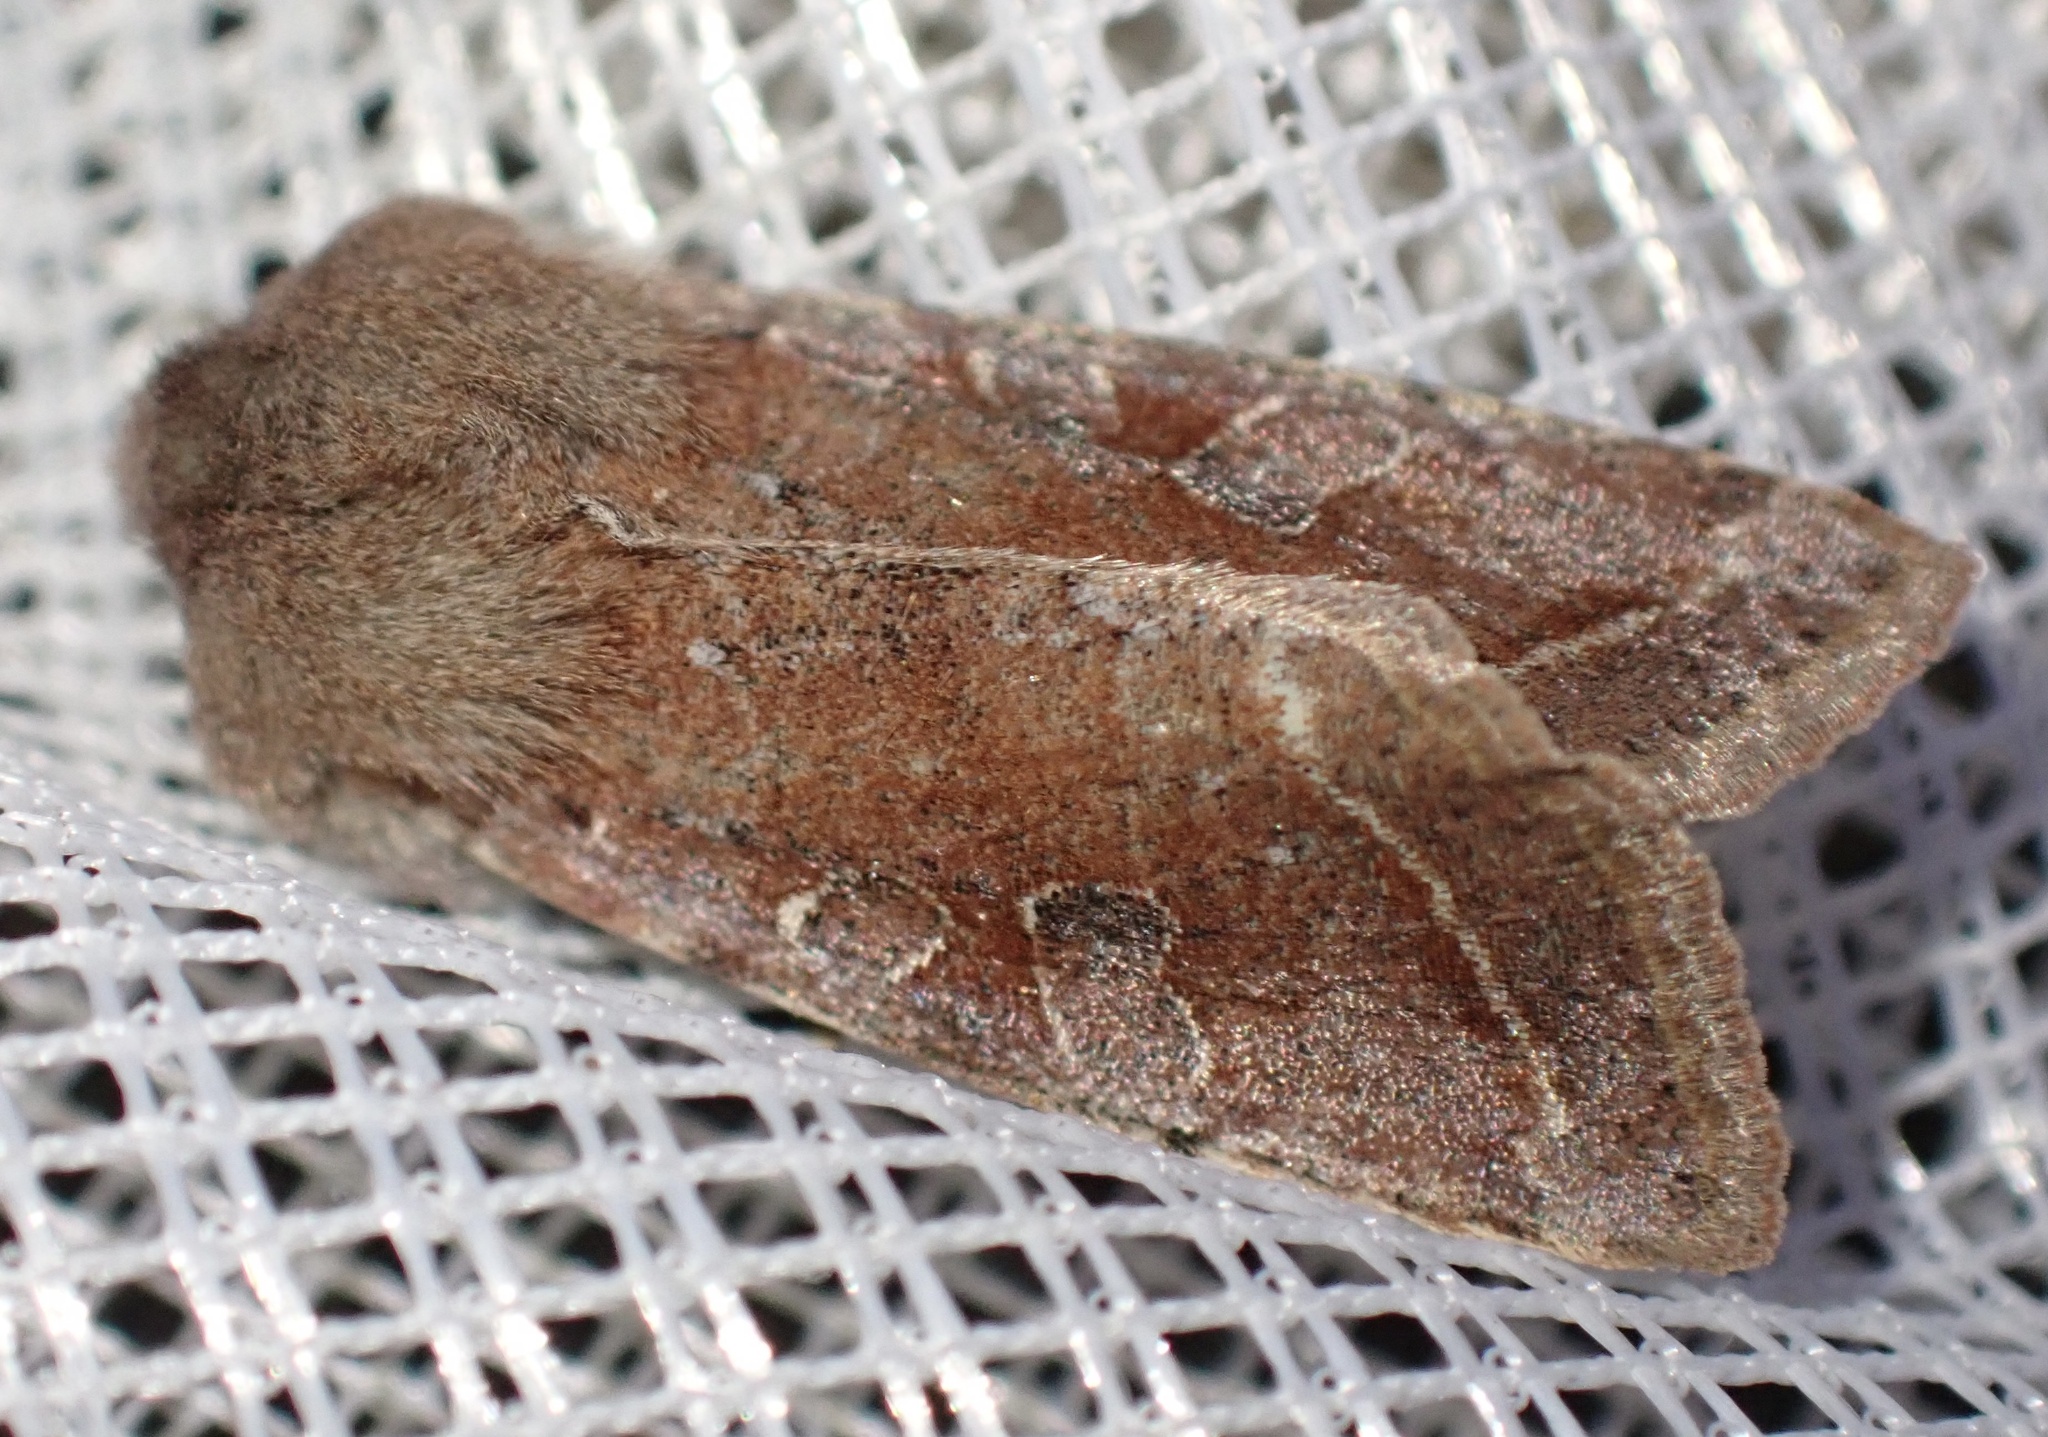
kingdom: Animalia
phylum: Arthropoda
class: Insecta
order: Lepidoptera
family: Noctuidae
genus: Orthosia
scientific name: Orthosia incerta
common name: Clouded drab
